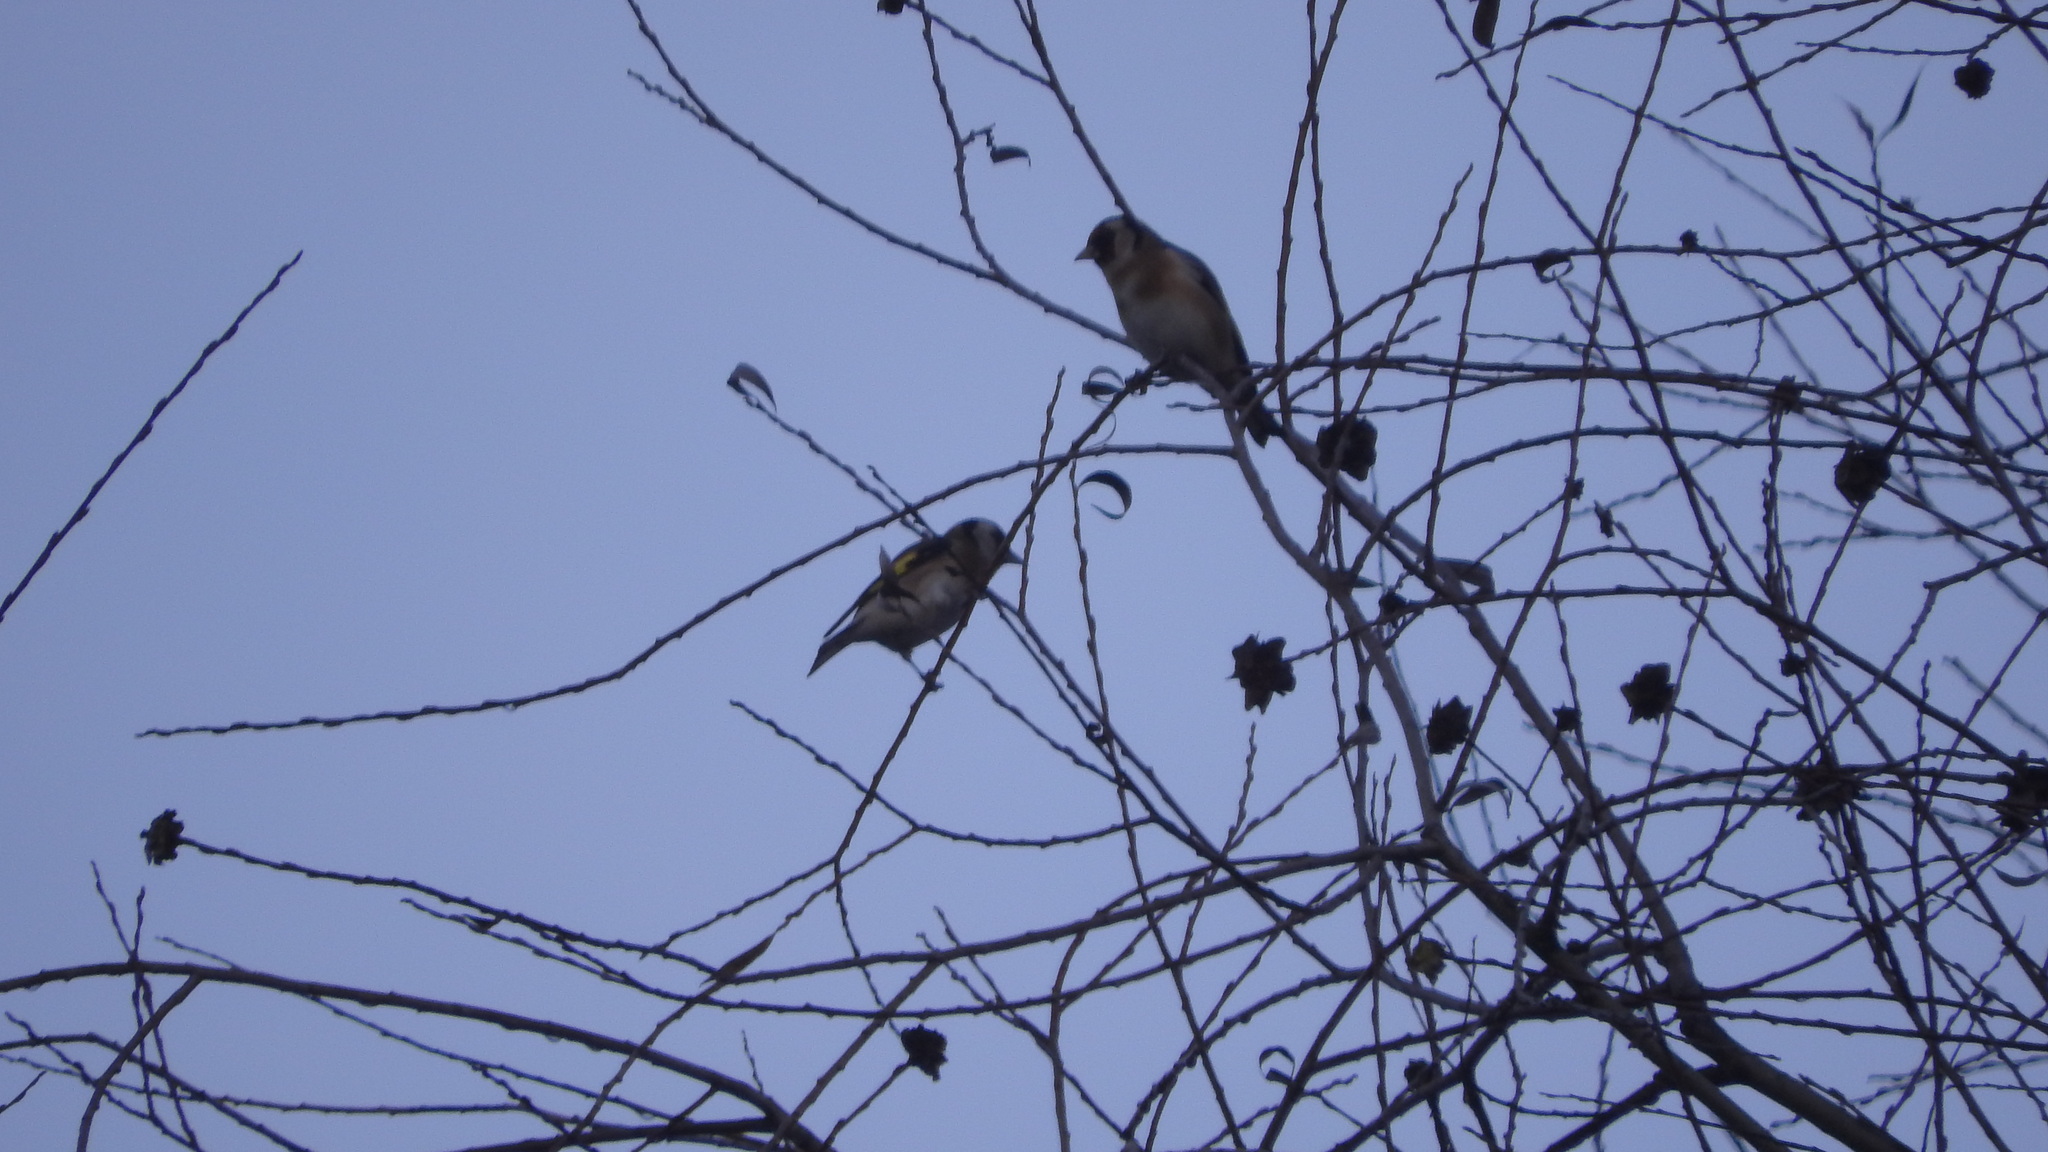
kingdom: Animalia
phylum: Chordata
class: Aves
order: Passeriformes
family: Fringillidae
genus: Carduelis
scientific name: Carduelis carduelis
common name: European goldfinch
